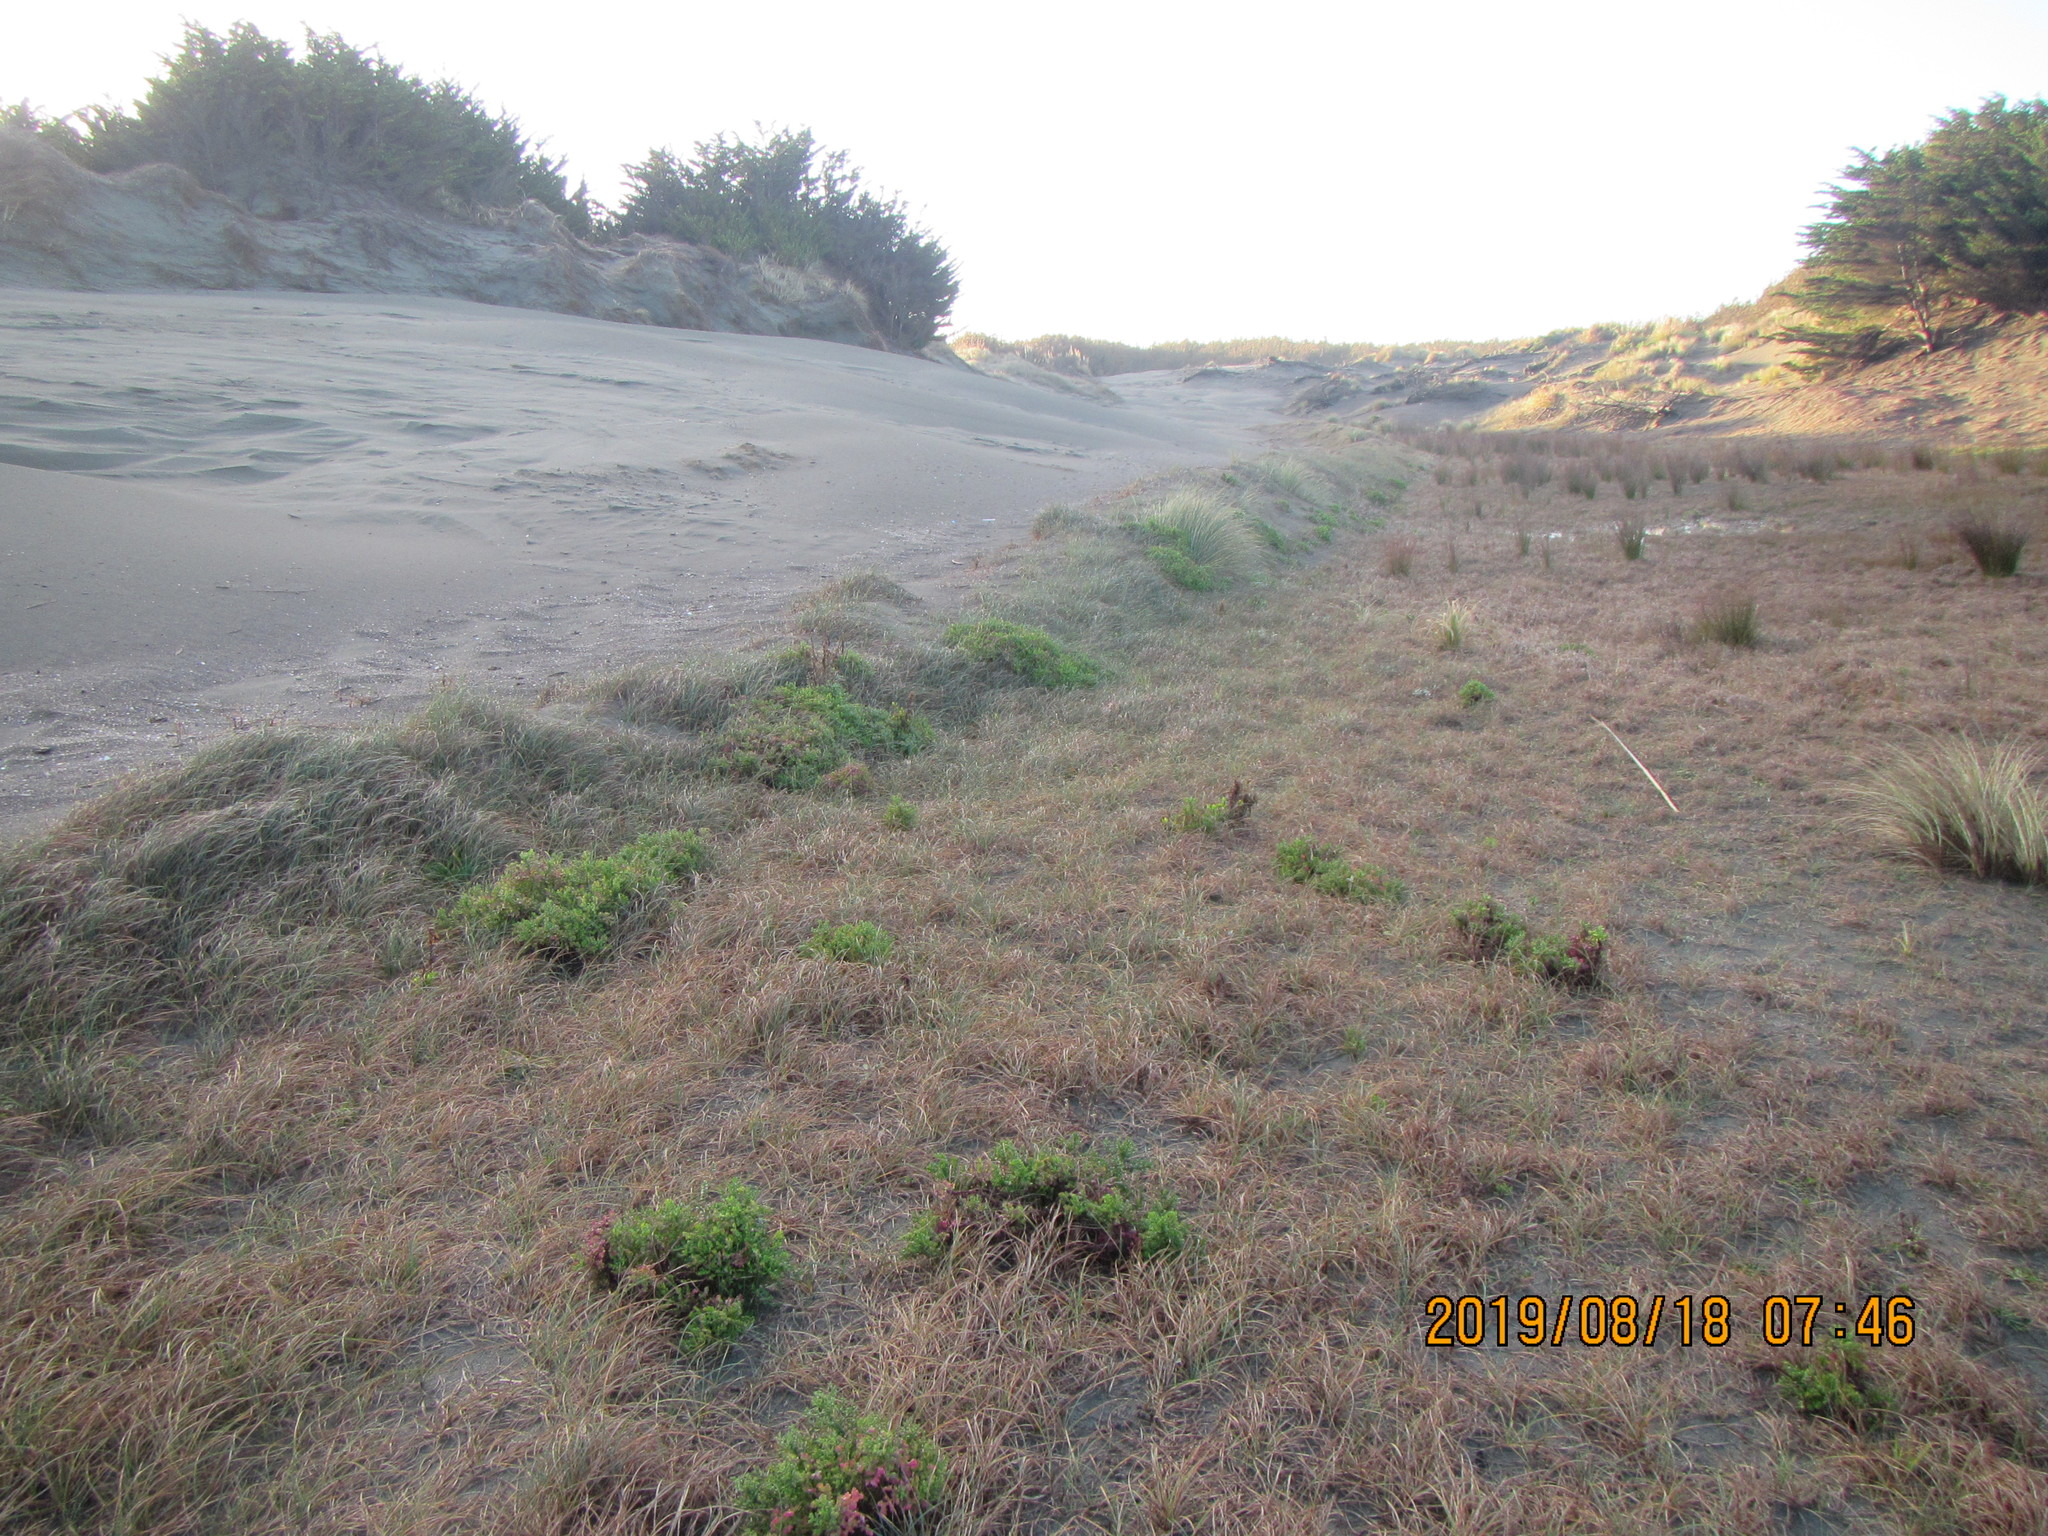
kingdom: Plantae
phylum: Tracheophyta
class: Liliopsida
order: Poales
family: Cyperaceae
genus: Carex
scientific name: Carex pumila
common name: Dwarf sedge
